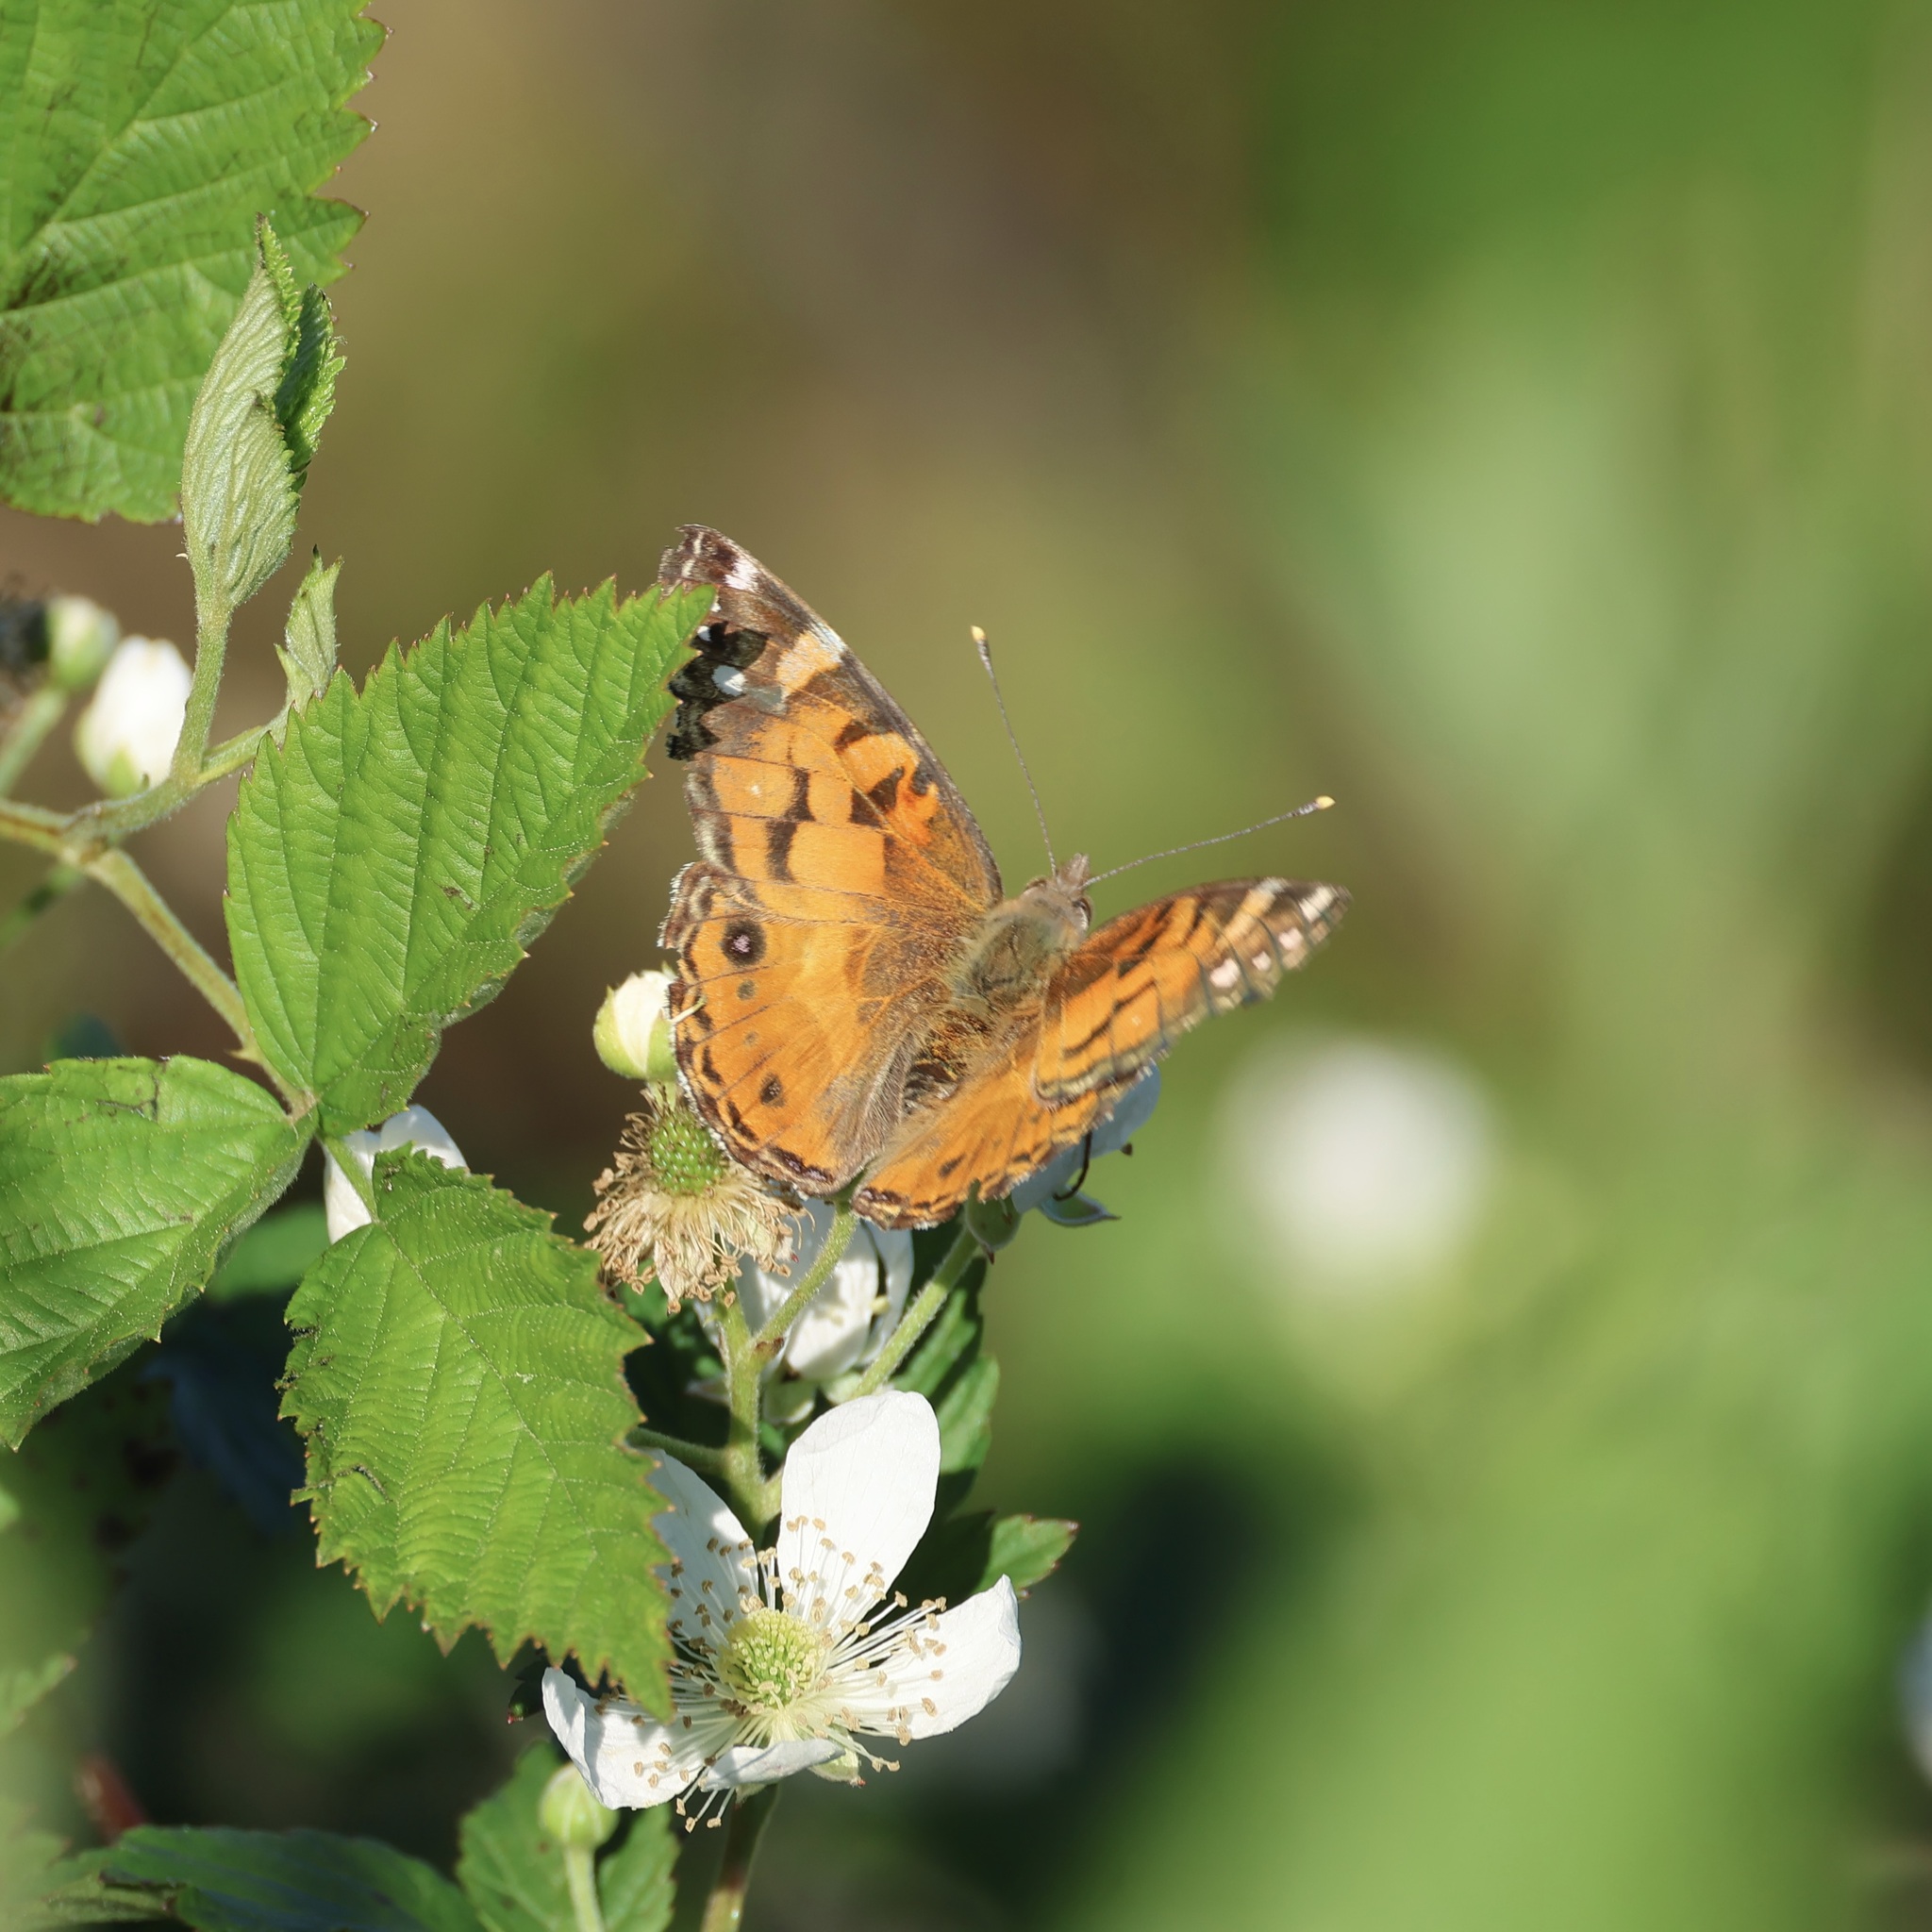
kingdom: Animalia
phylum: Arthropoda
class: Insecta
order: Lepidoptera
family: Nymphalidae
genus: Vanessa
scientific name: Vanessa virginiensis
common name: American lady
